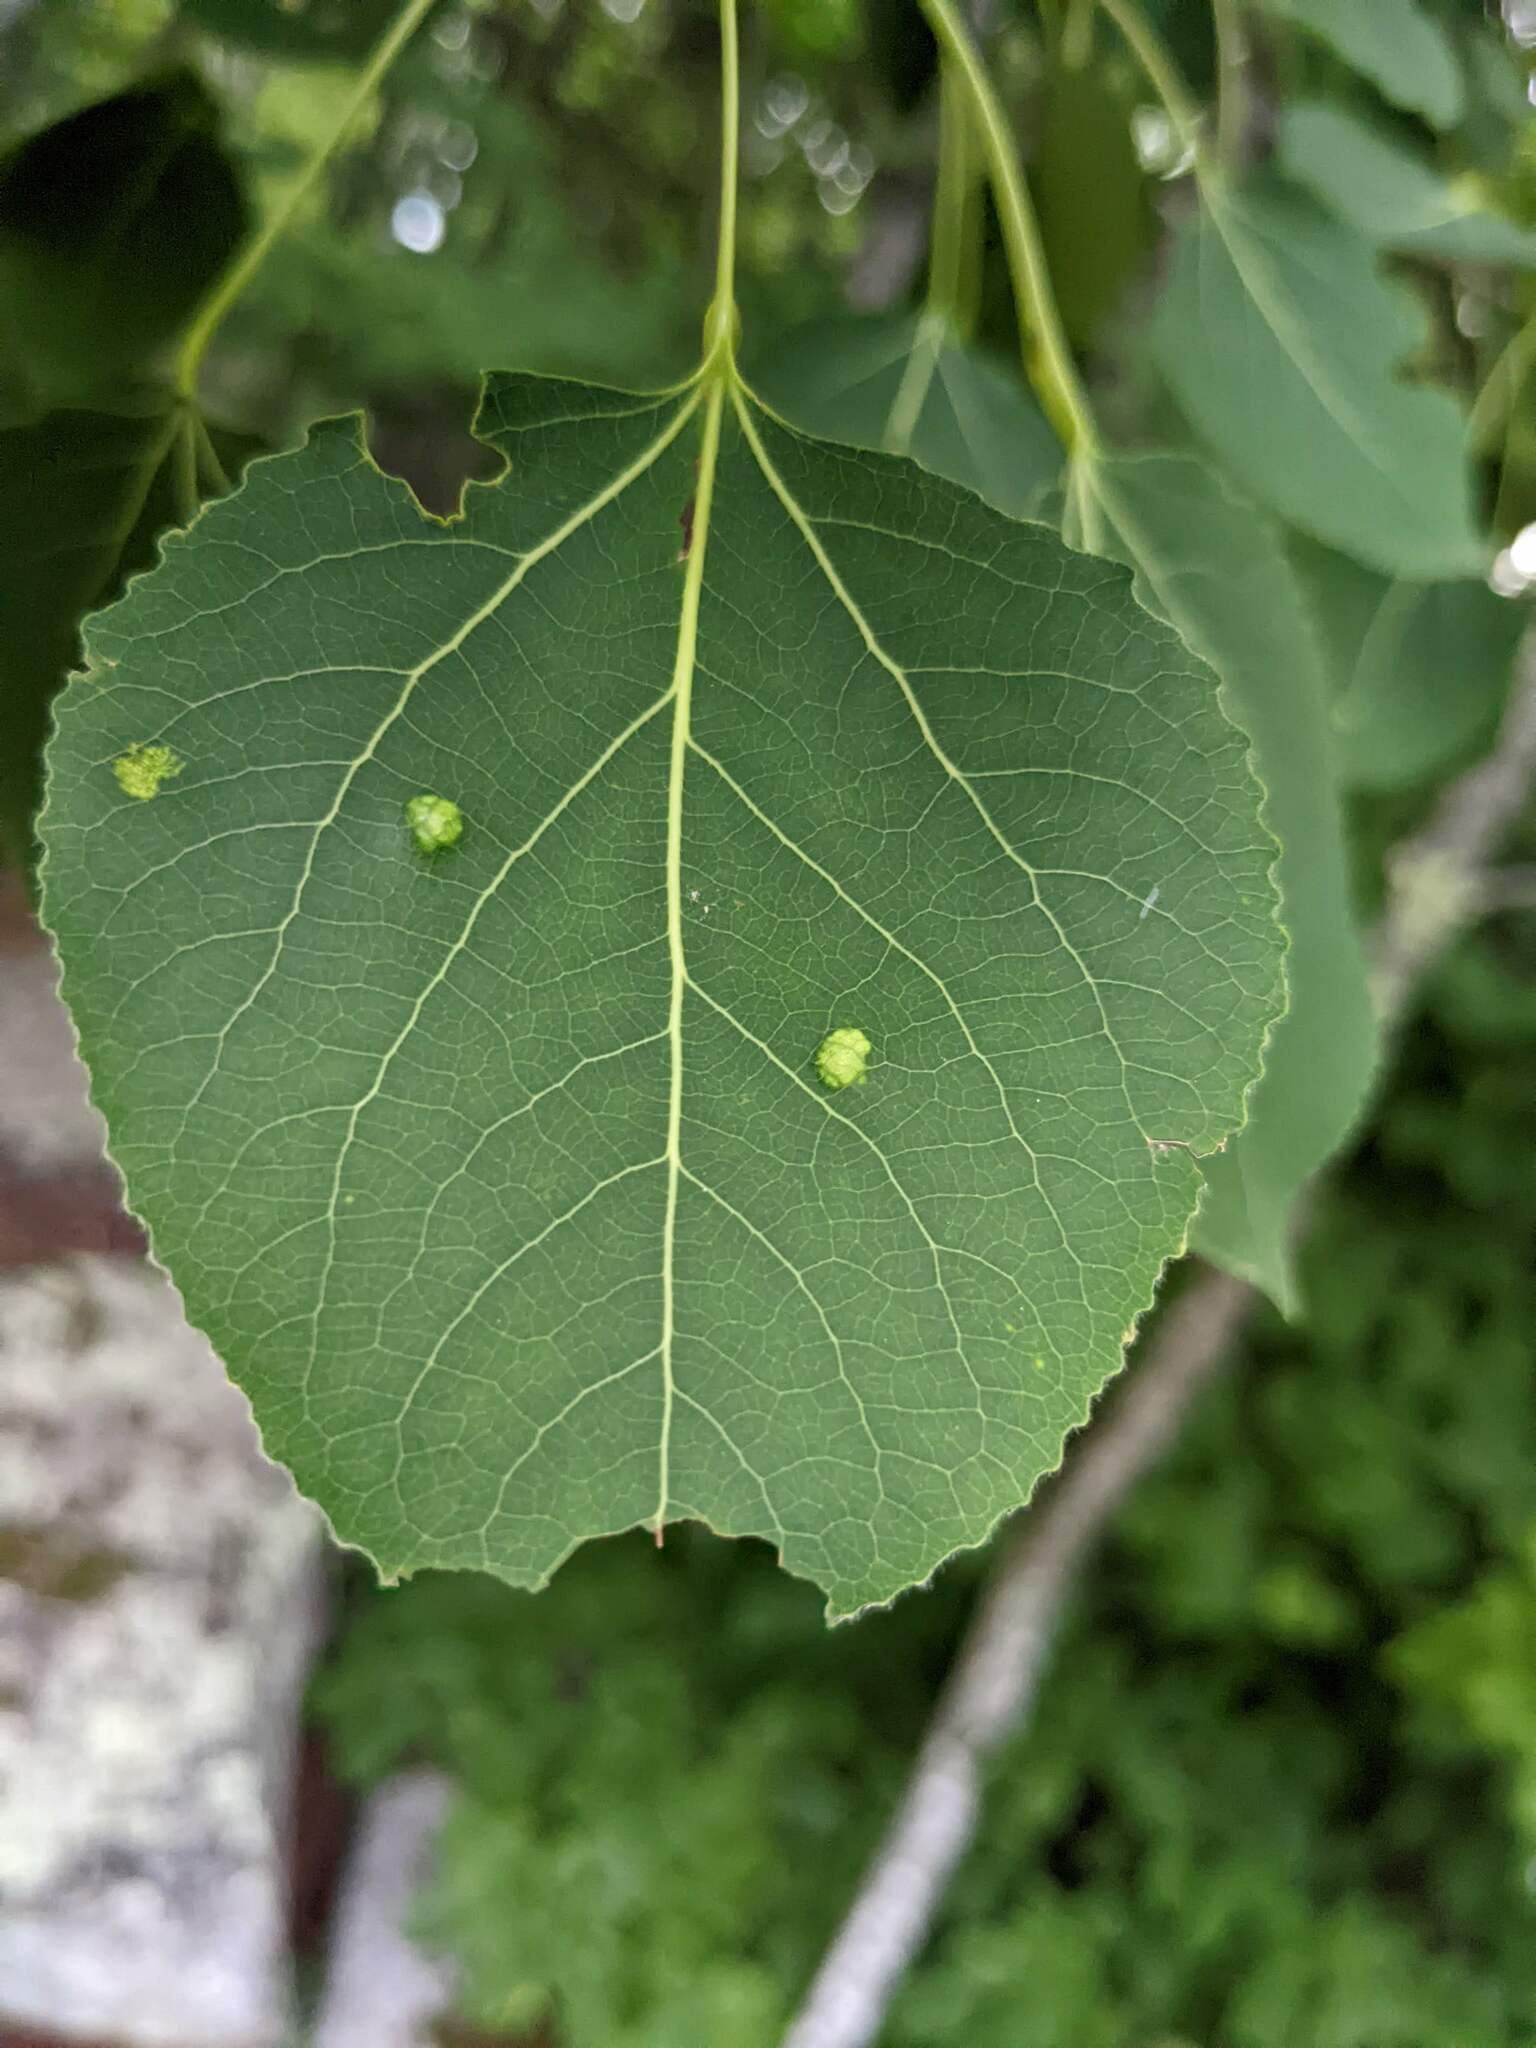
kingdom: Animalia
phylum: Arthropoda
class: Arachnida
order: Trombidiformes
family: Eriophyidae
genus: Phyllocoptes
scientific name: Phyllocoptes
